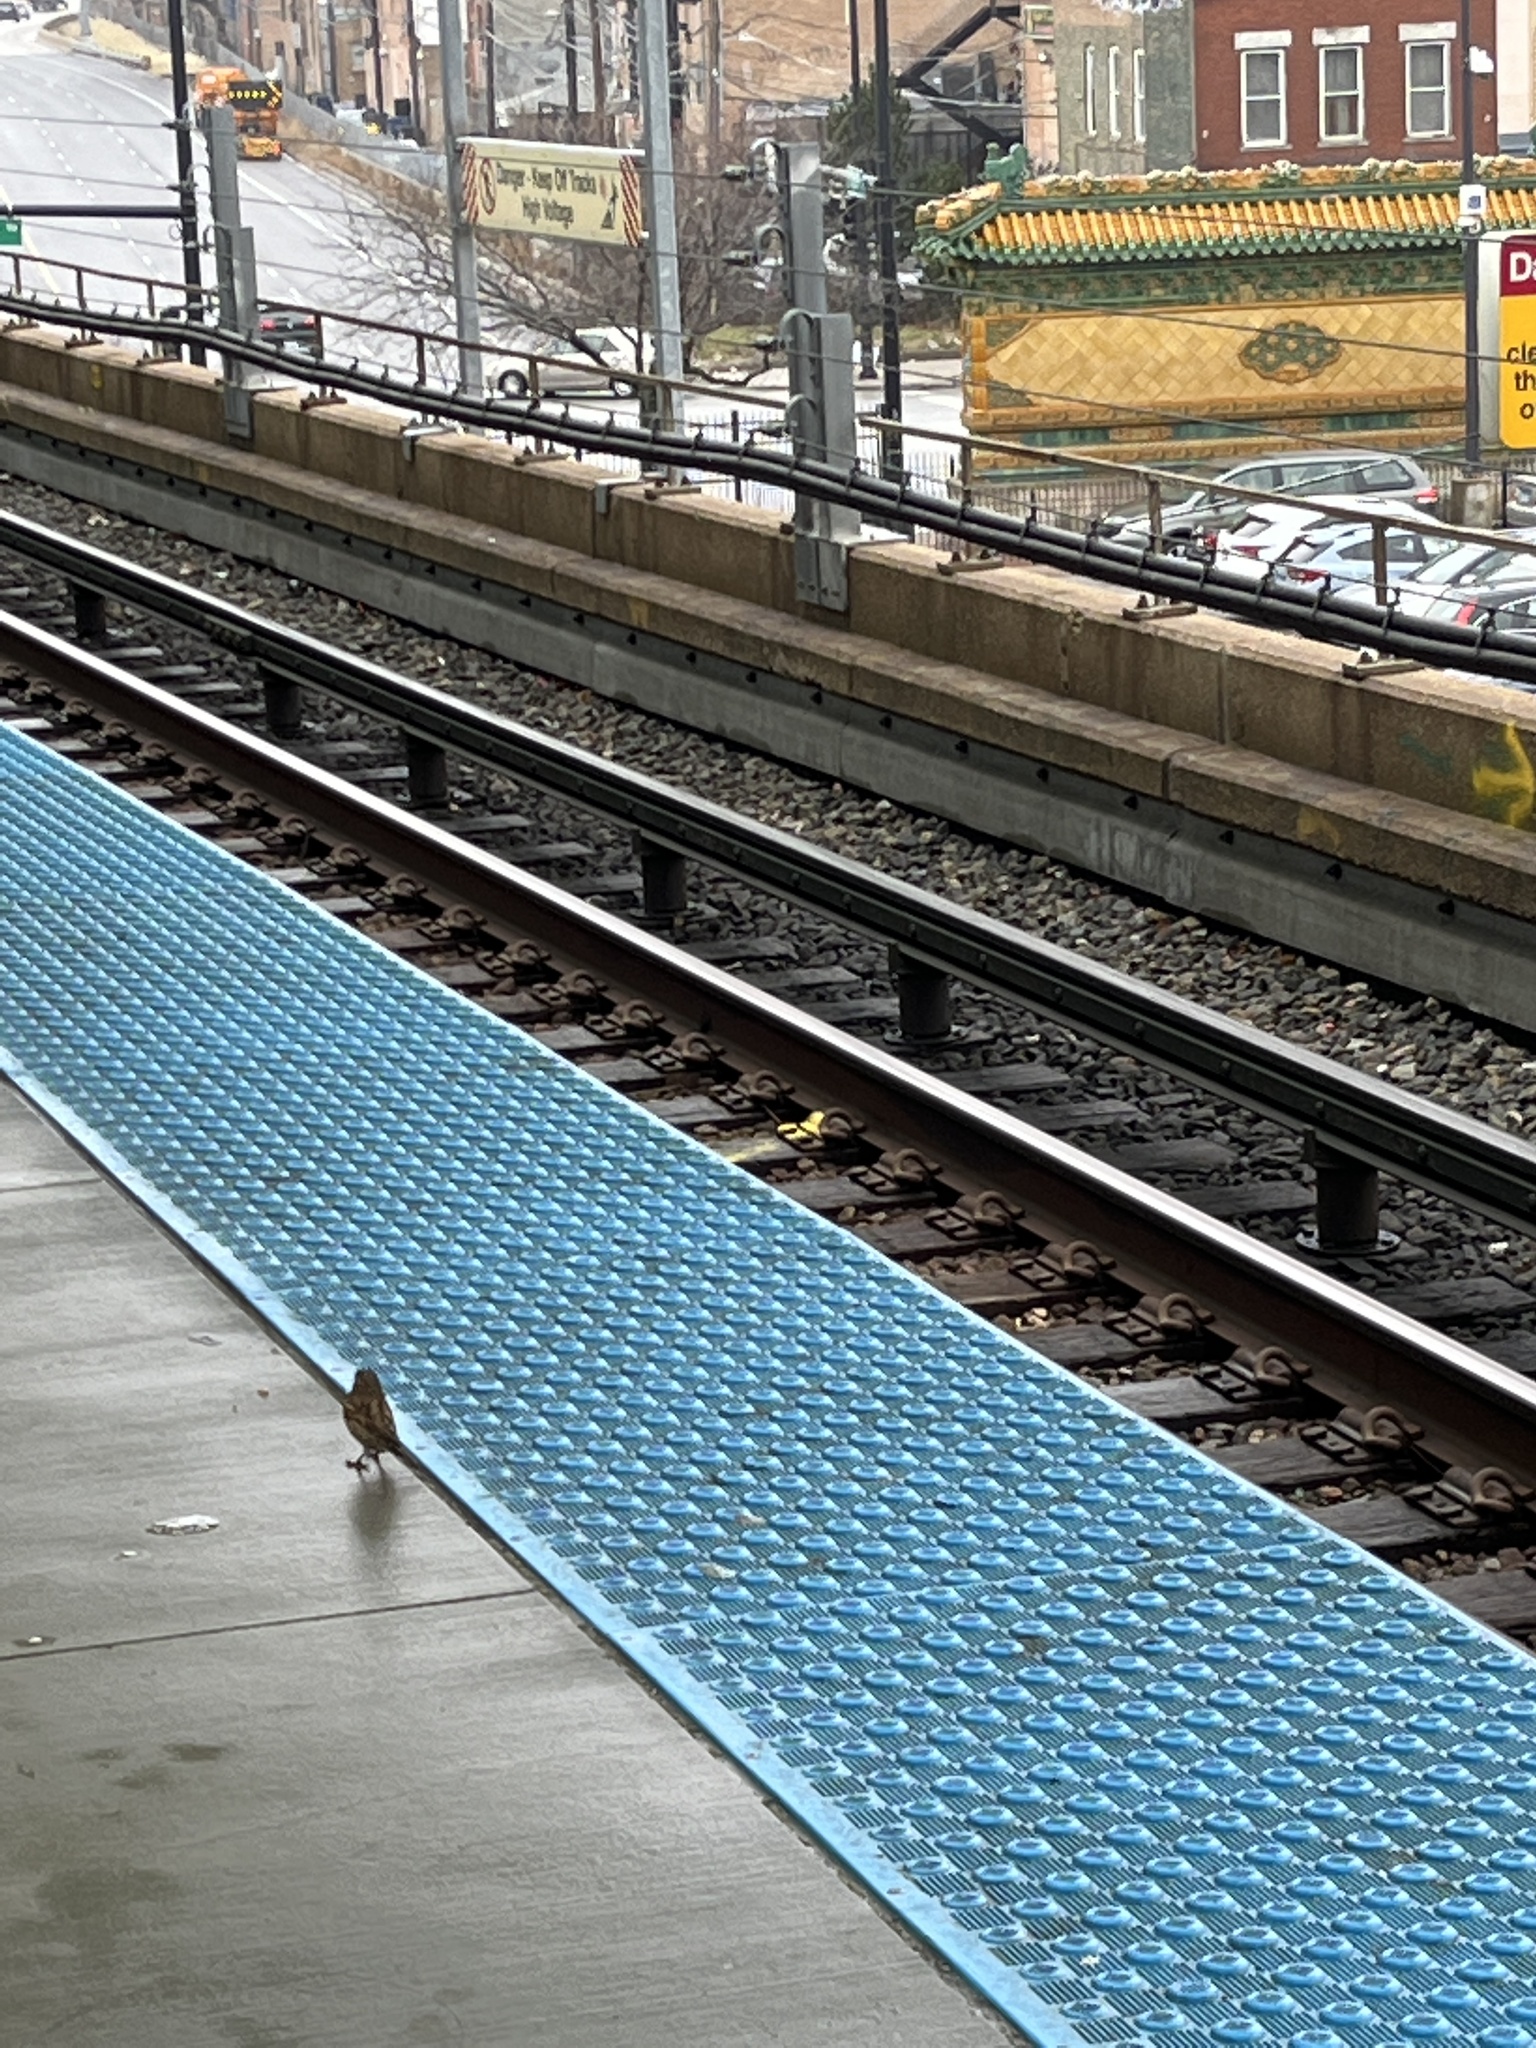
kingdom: Animalia
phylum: Chordata
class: Aves
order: Passeriformes
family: Passeridae
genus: Passer
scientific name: Passer domesticus
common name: House sparrow
